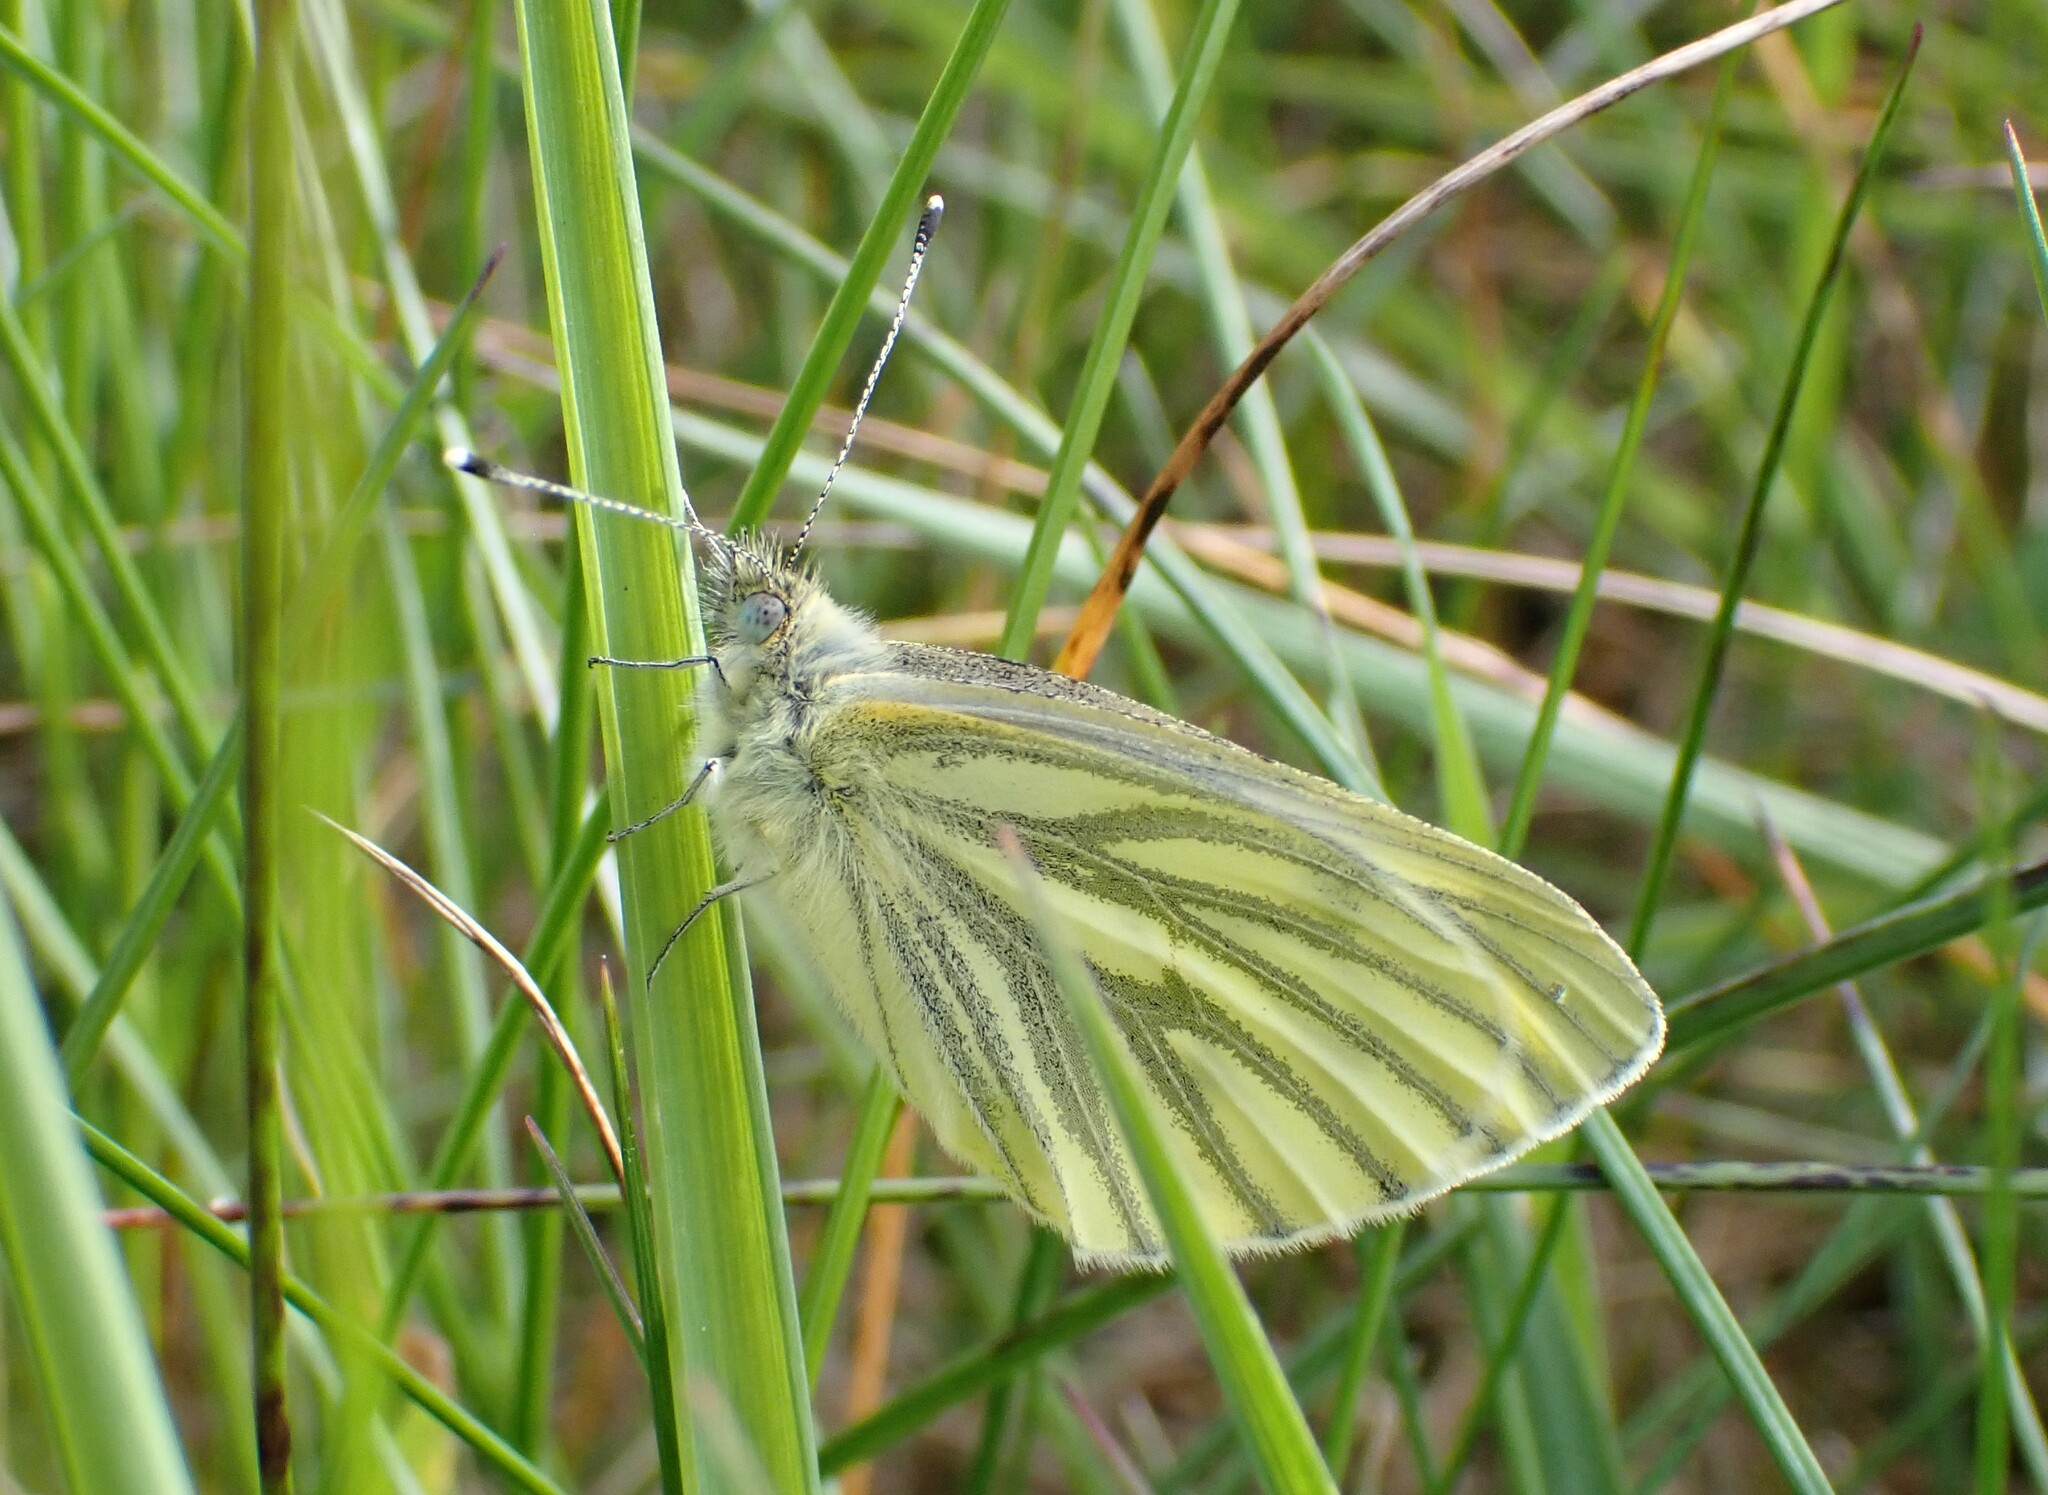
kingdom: Animalia
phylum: Arthropoda
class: Insecta
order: Lepidoptera
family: Pieridae
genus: Pieris
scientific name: Pieris napi
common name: Green-veined white
